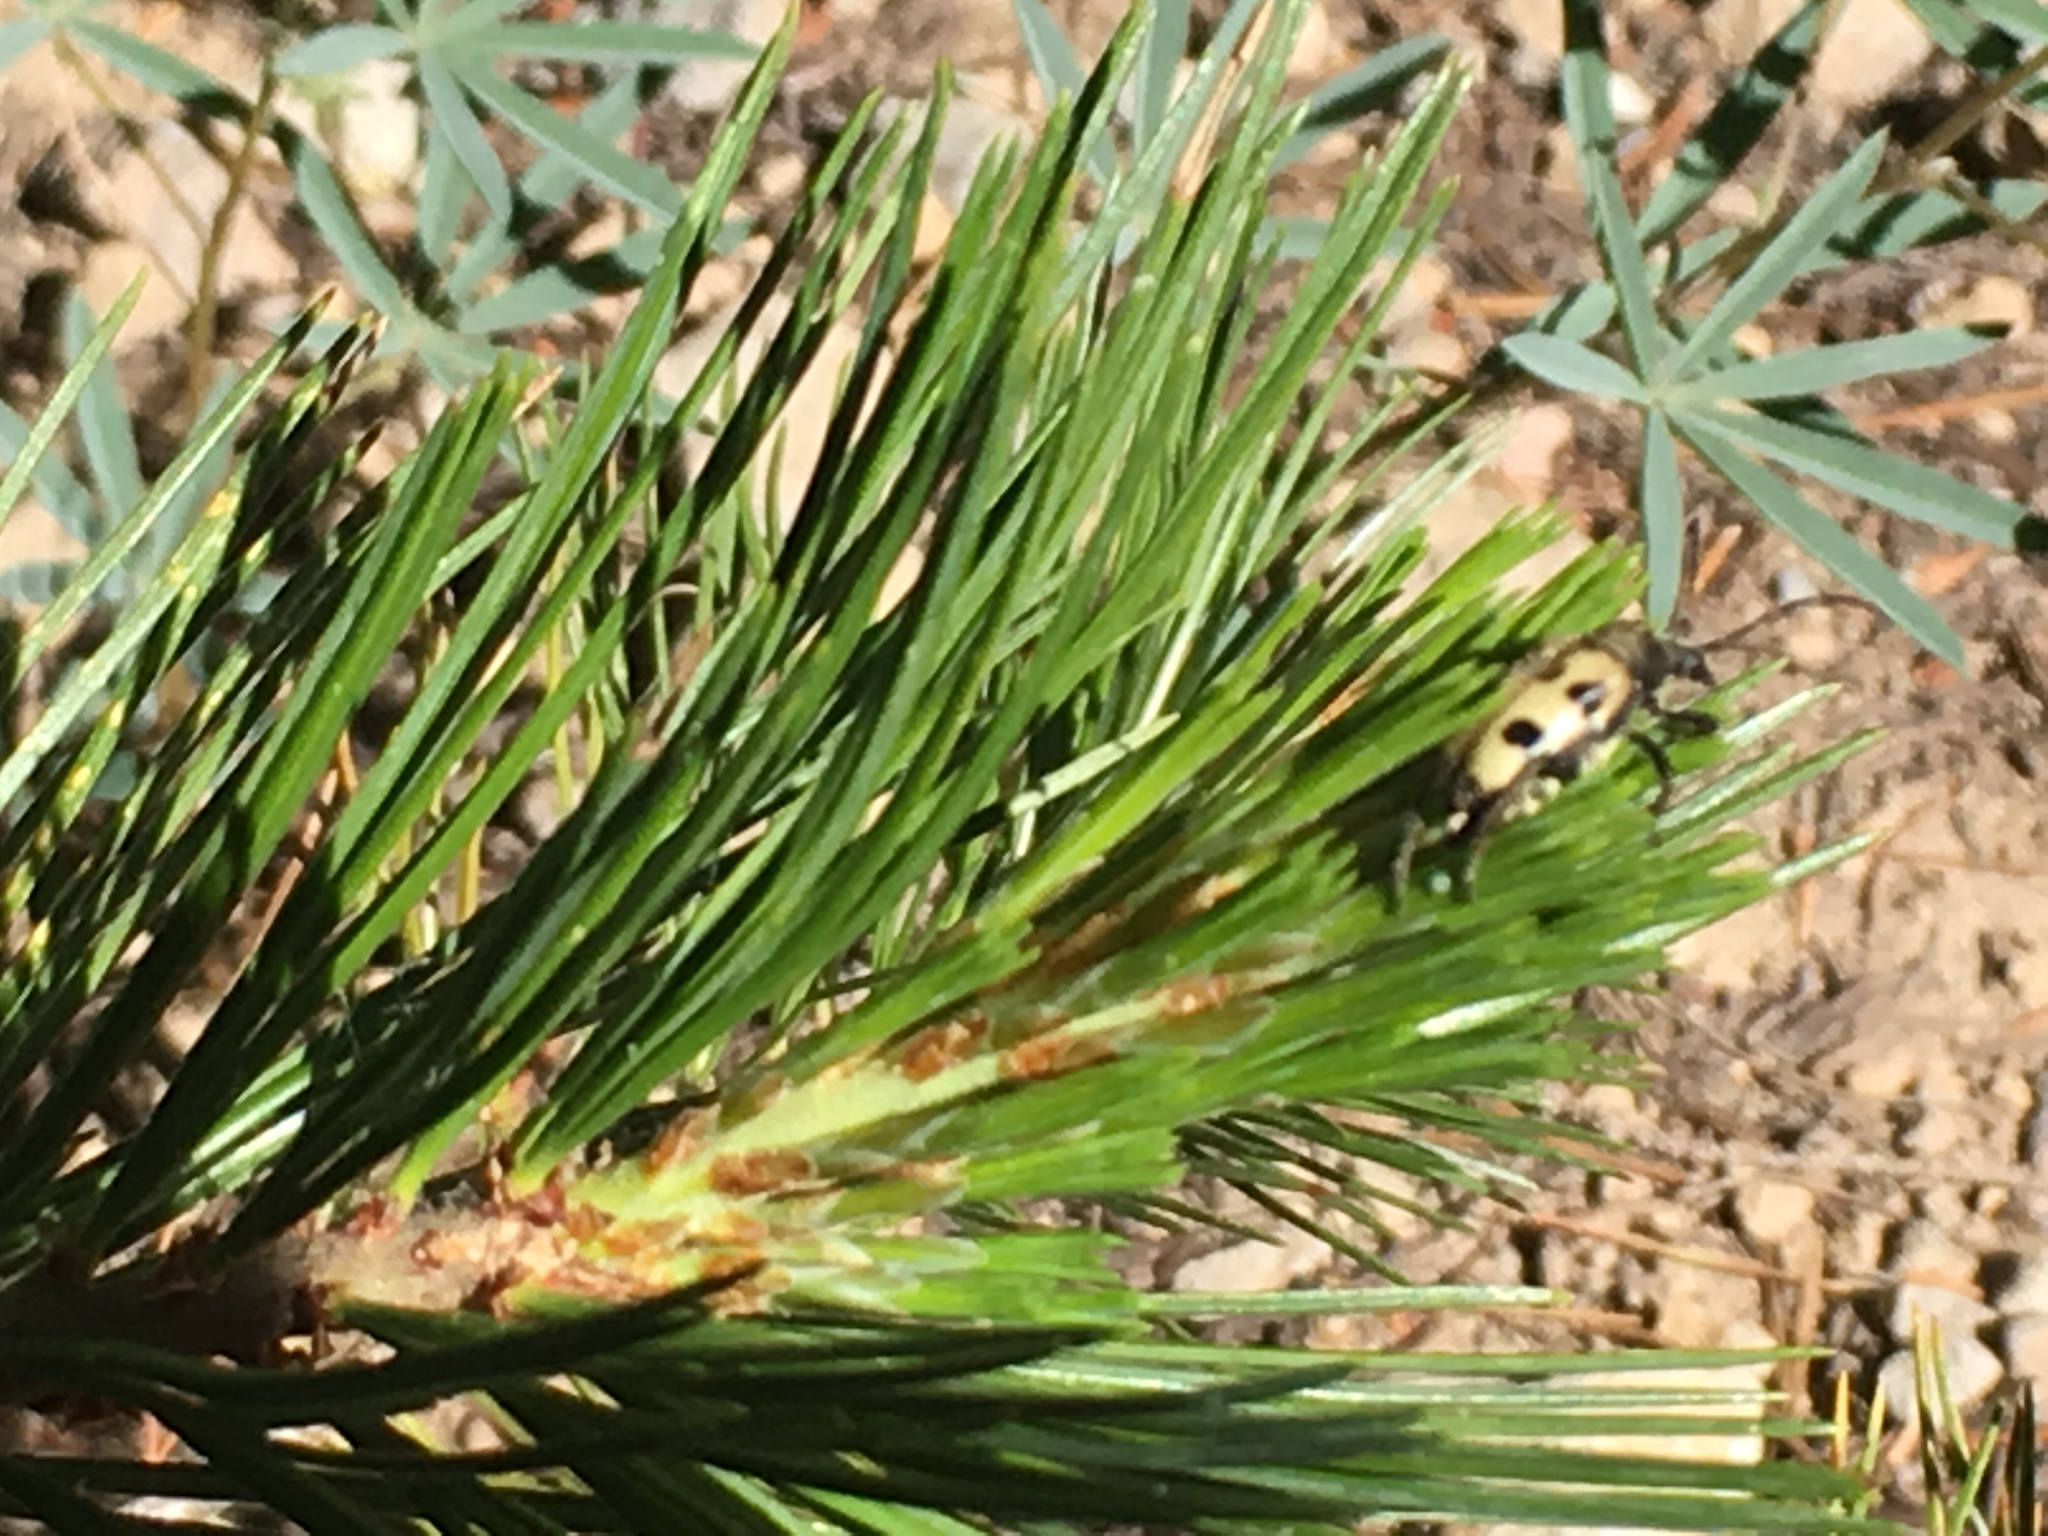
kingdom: Animalia
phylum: Arthropoda
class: Insecta
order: Coleoptera
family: Cerambycidae
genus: Judolia
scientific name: Judolia instabilis
